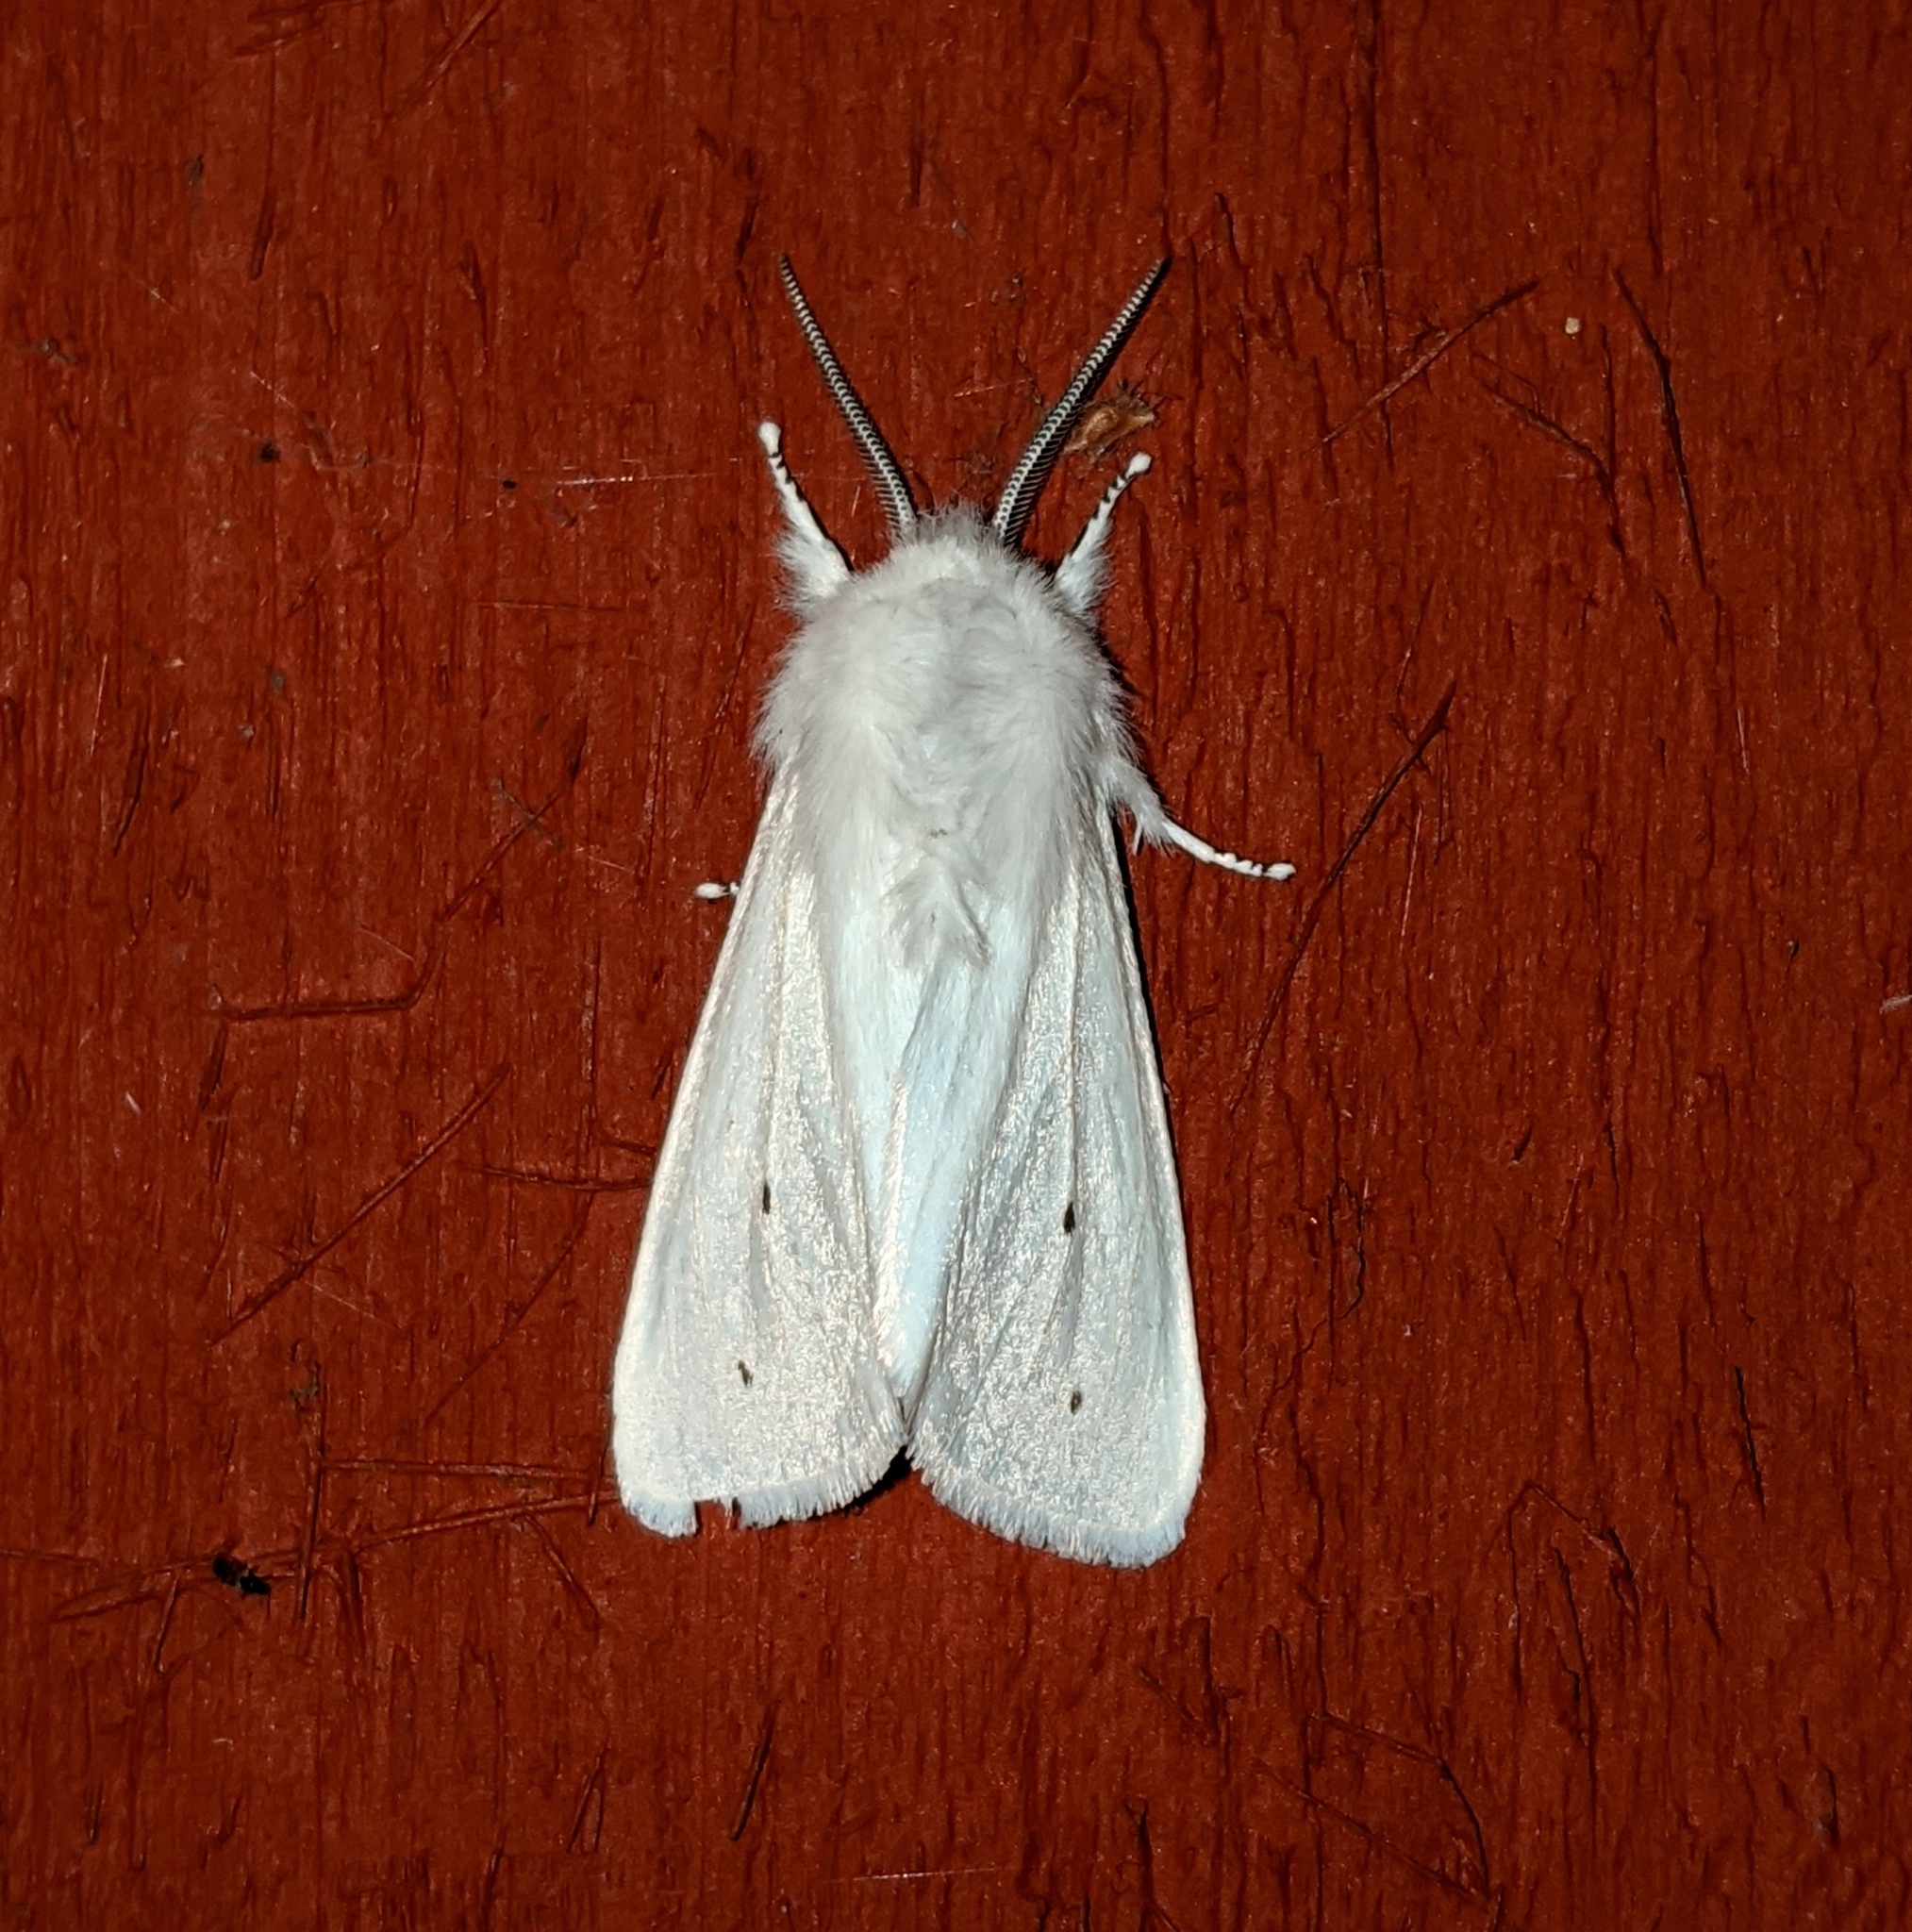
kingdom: Animalia
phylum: Arthropoda
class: Insecta
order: Lepidoptera
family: Erebidae
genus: Spilosoma
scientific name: Spilosoma virginica
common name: Virginia tiger moth
